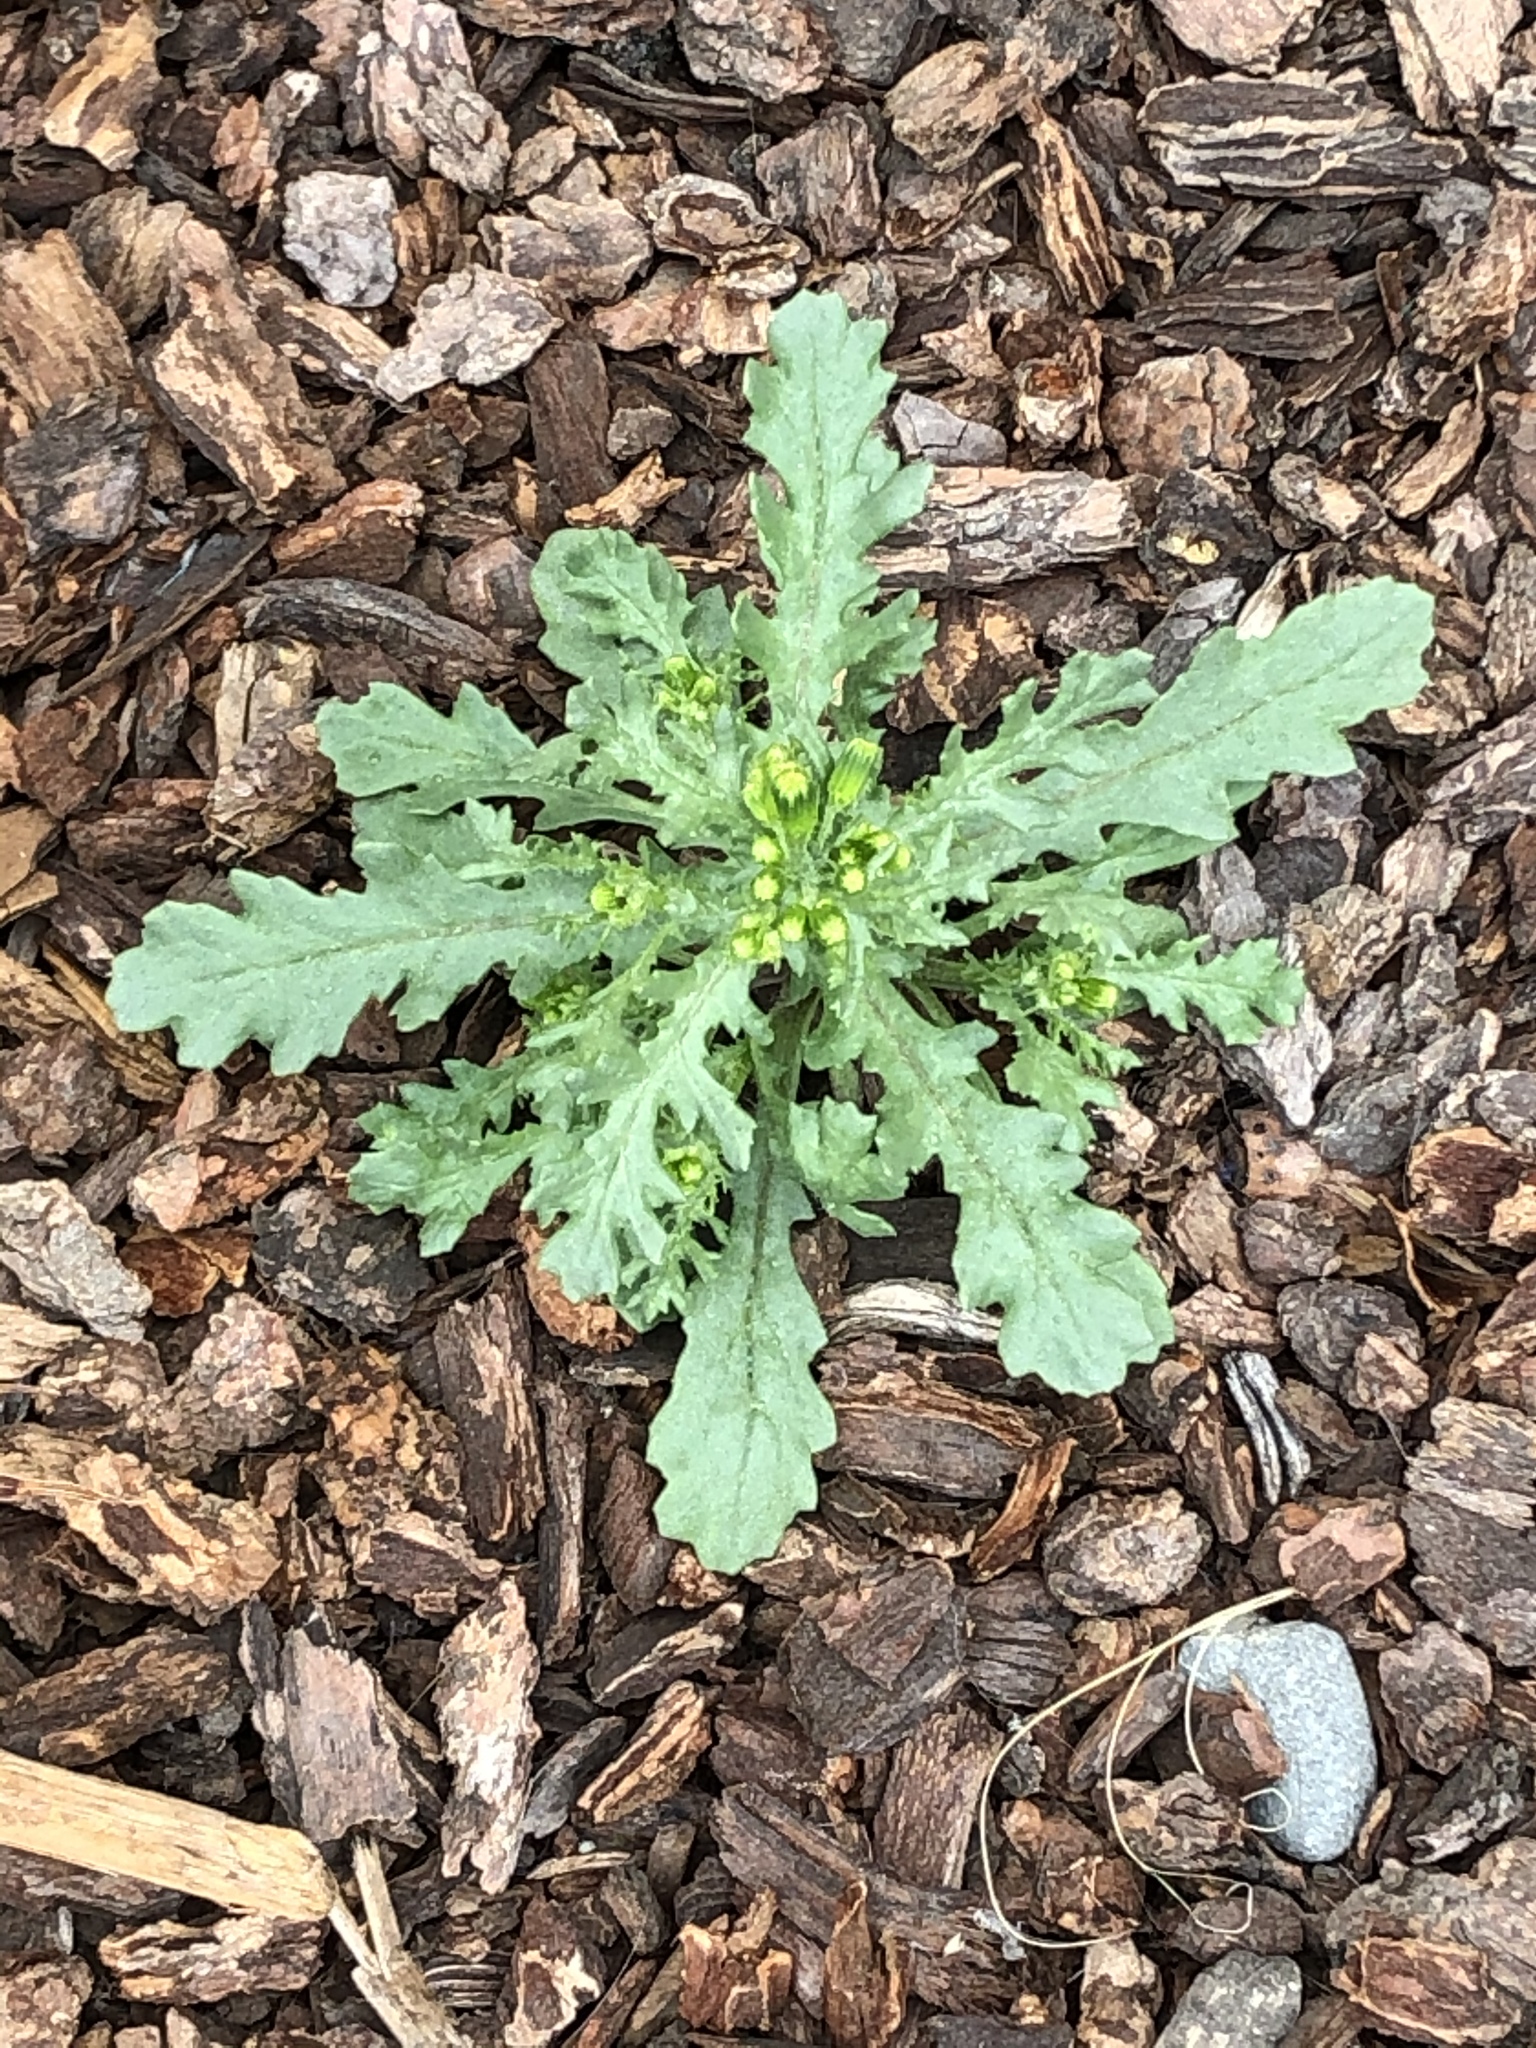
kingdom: Plantae
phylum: Tracheophyta
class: Magnoliopsida
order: Asterales
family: Asteraceae
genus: Senecio
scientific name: Senecio vulgaris
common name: Old-man-in-the-spring
